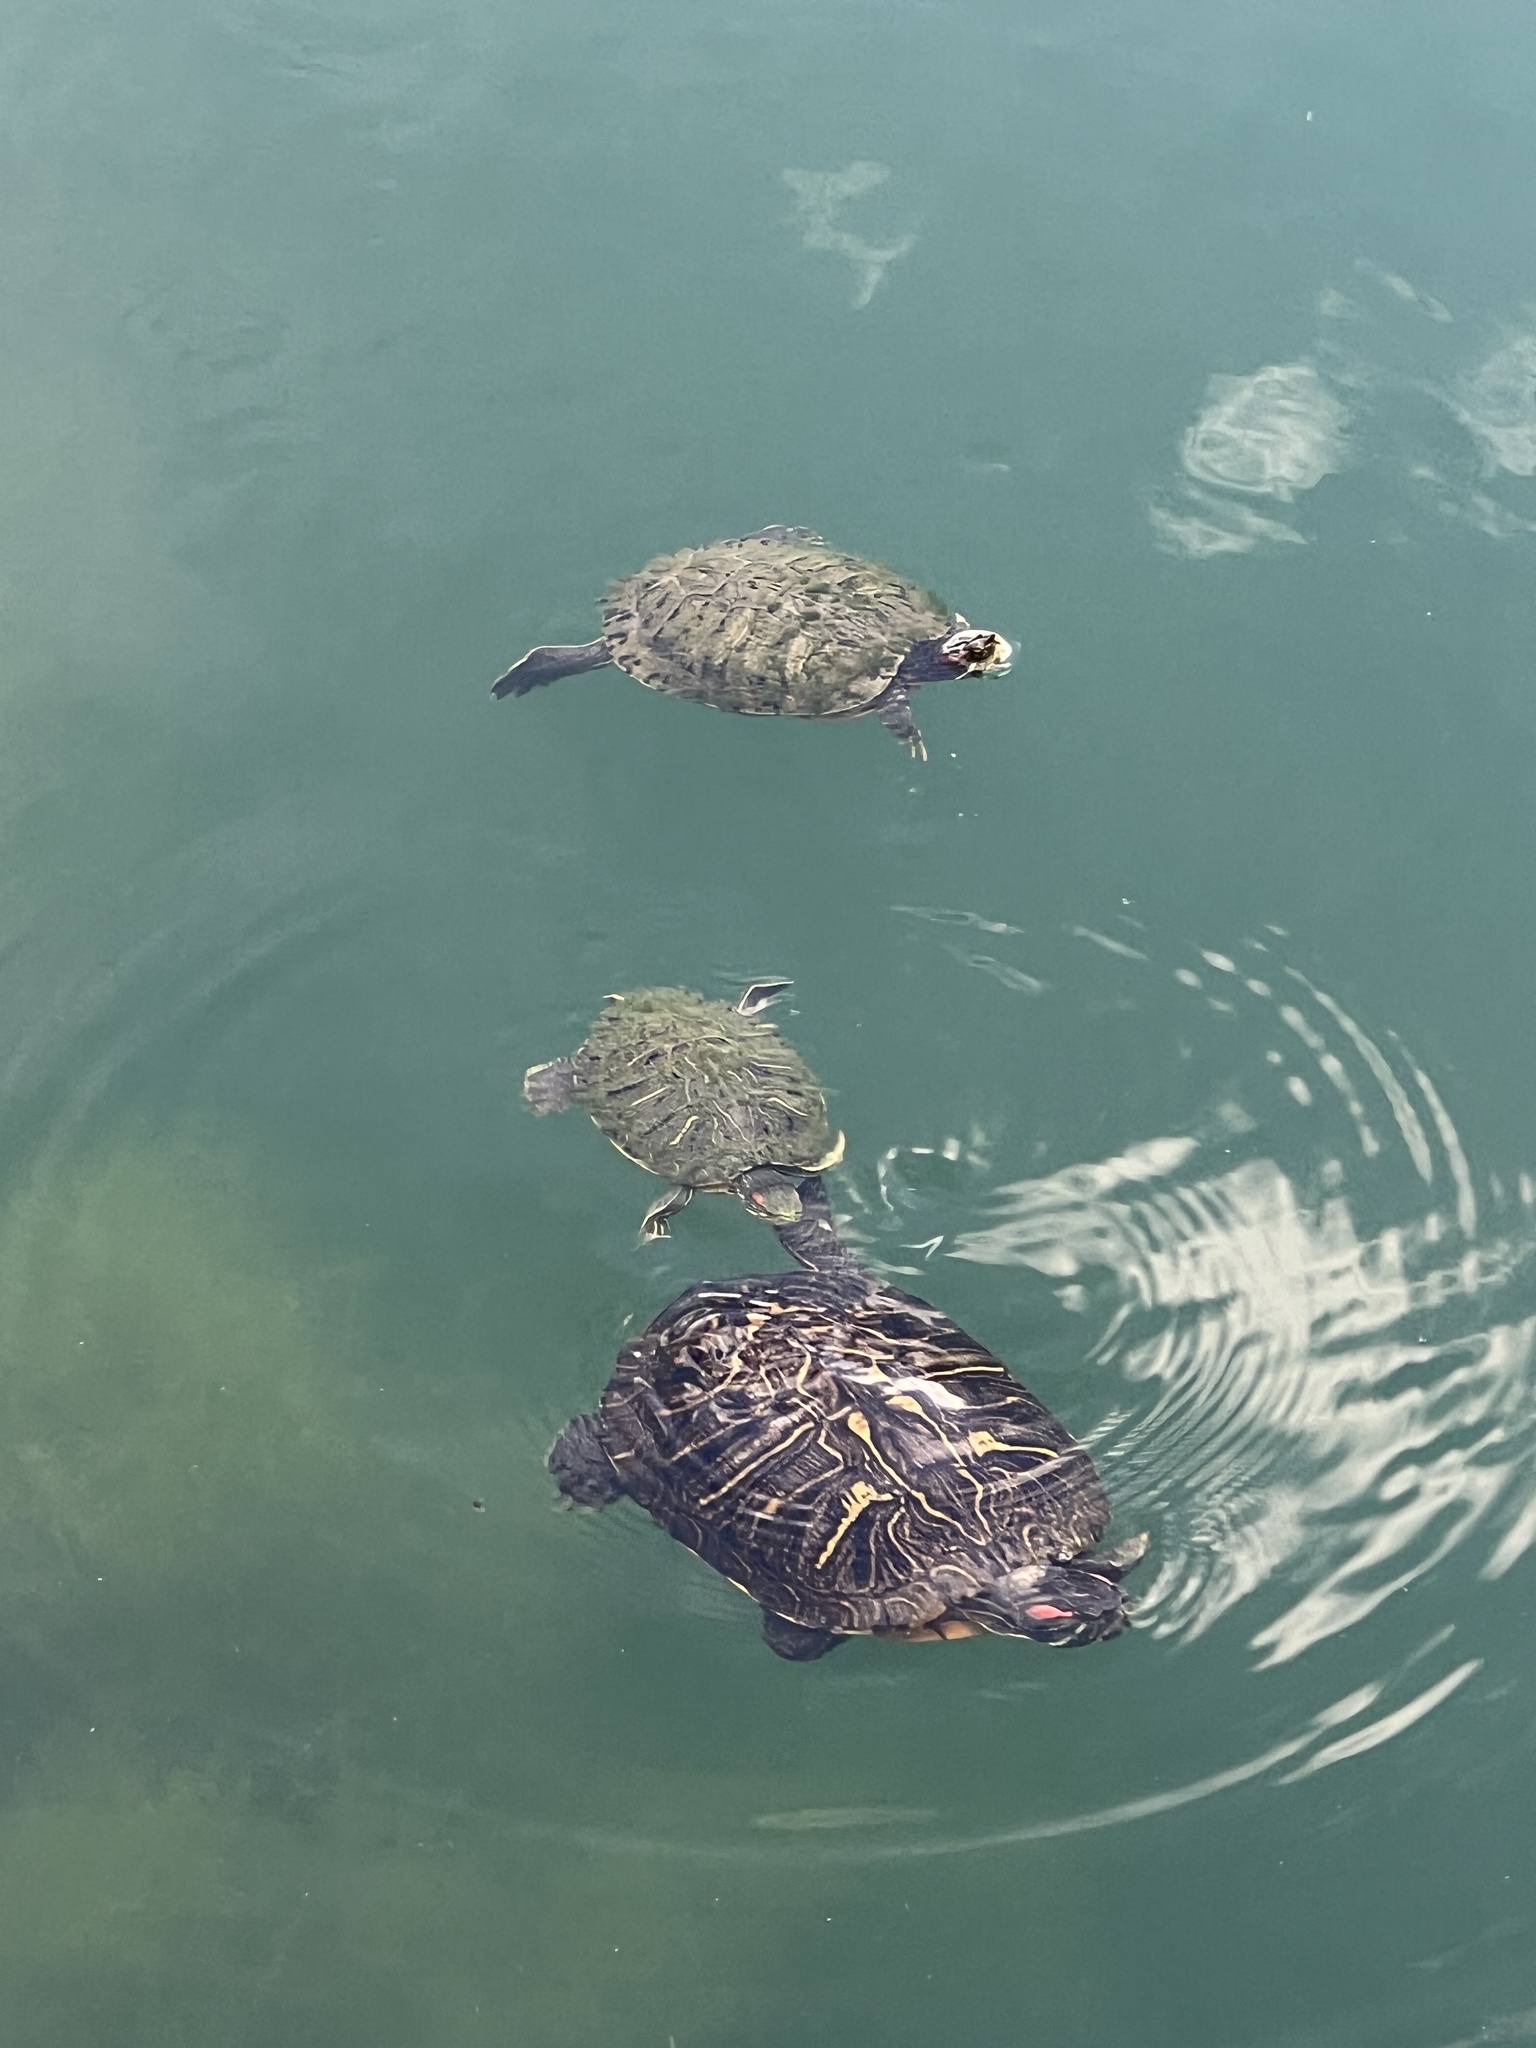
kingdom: Animalia
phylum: Chordata
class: Testudines
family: Emydidae
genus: Trachemys
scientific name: Trachemys scripta
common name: Slider
